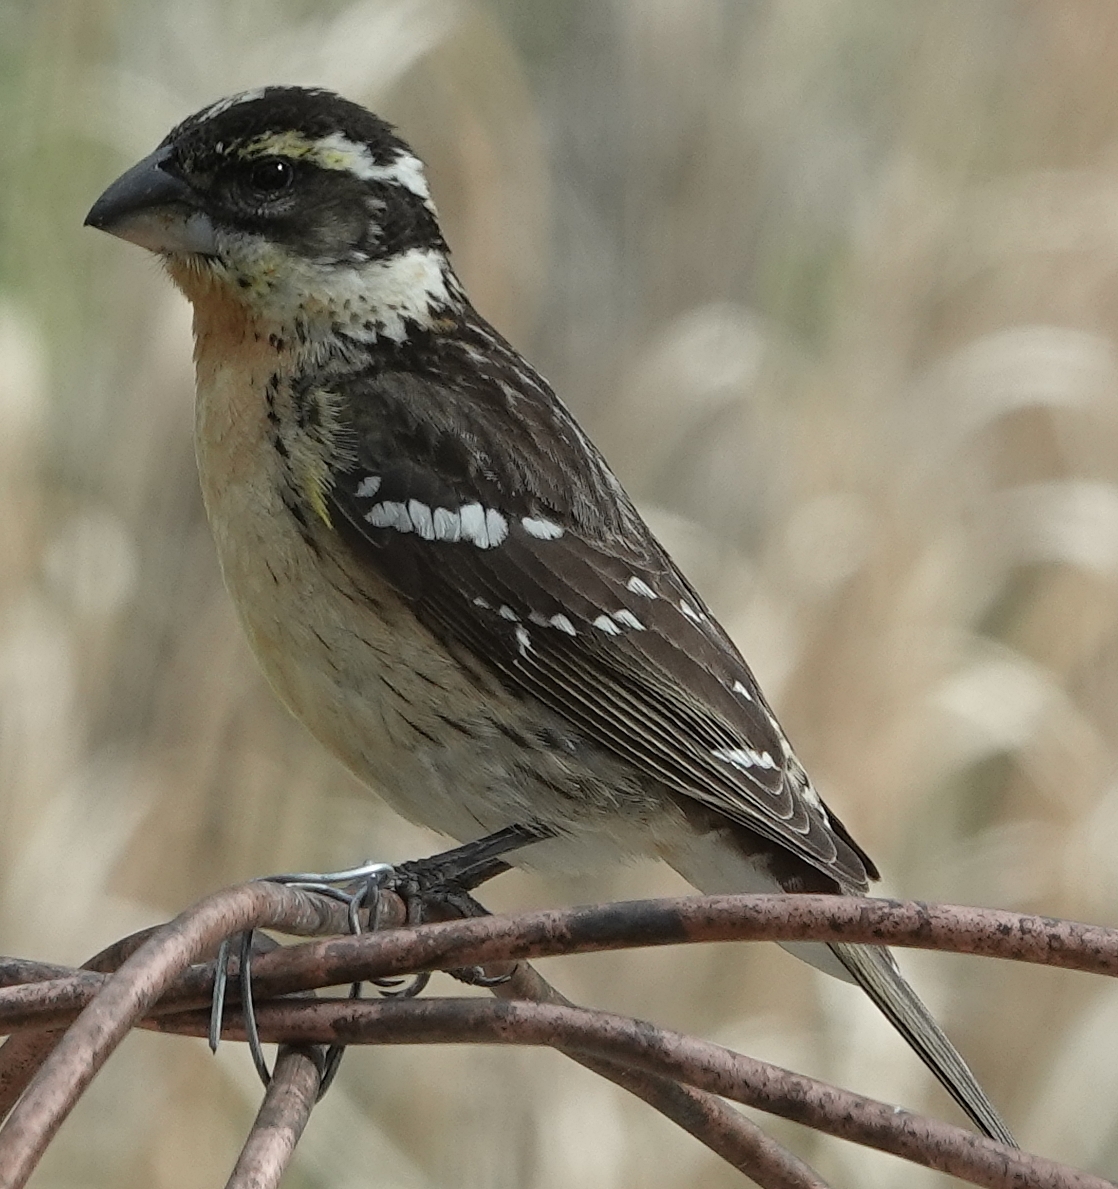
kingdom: Animalia
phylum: Chordata
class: Aves
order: Passeriformes
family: Cardinalidae
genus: Pheucticus
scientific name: Pheucticus ludovicianus
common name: Rose-breasted grosbeak
